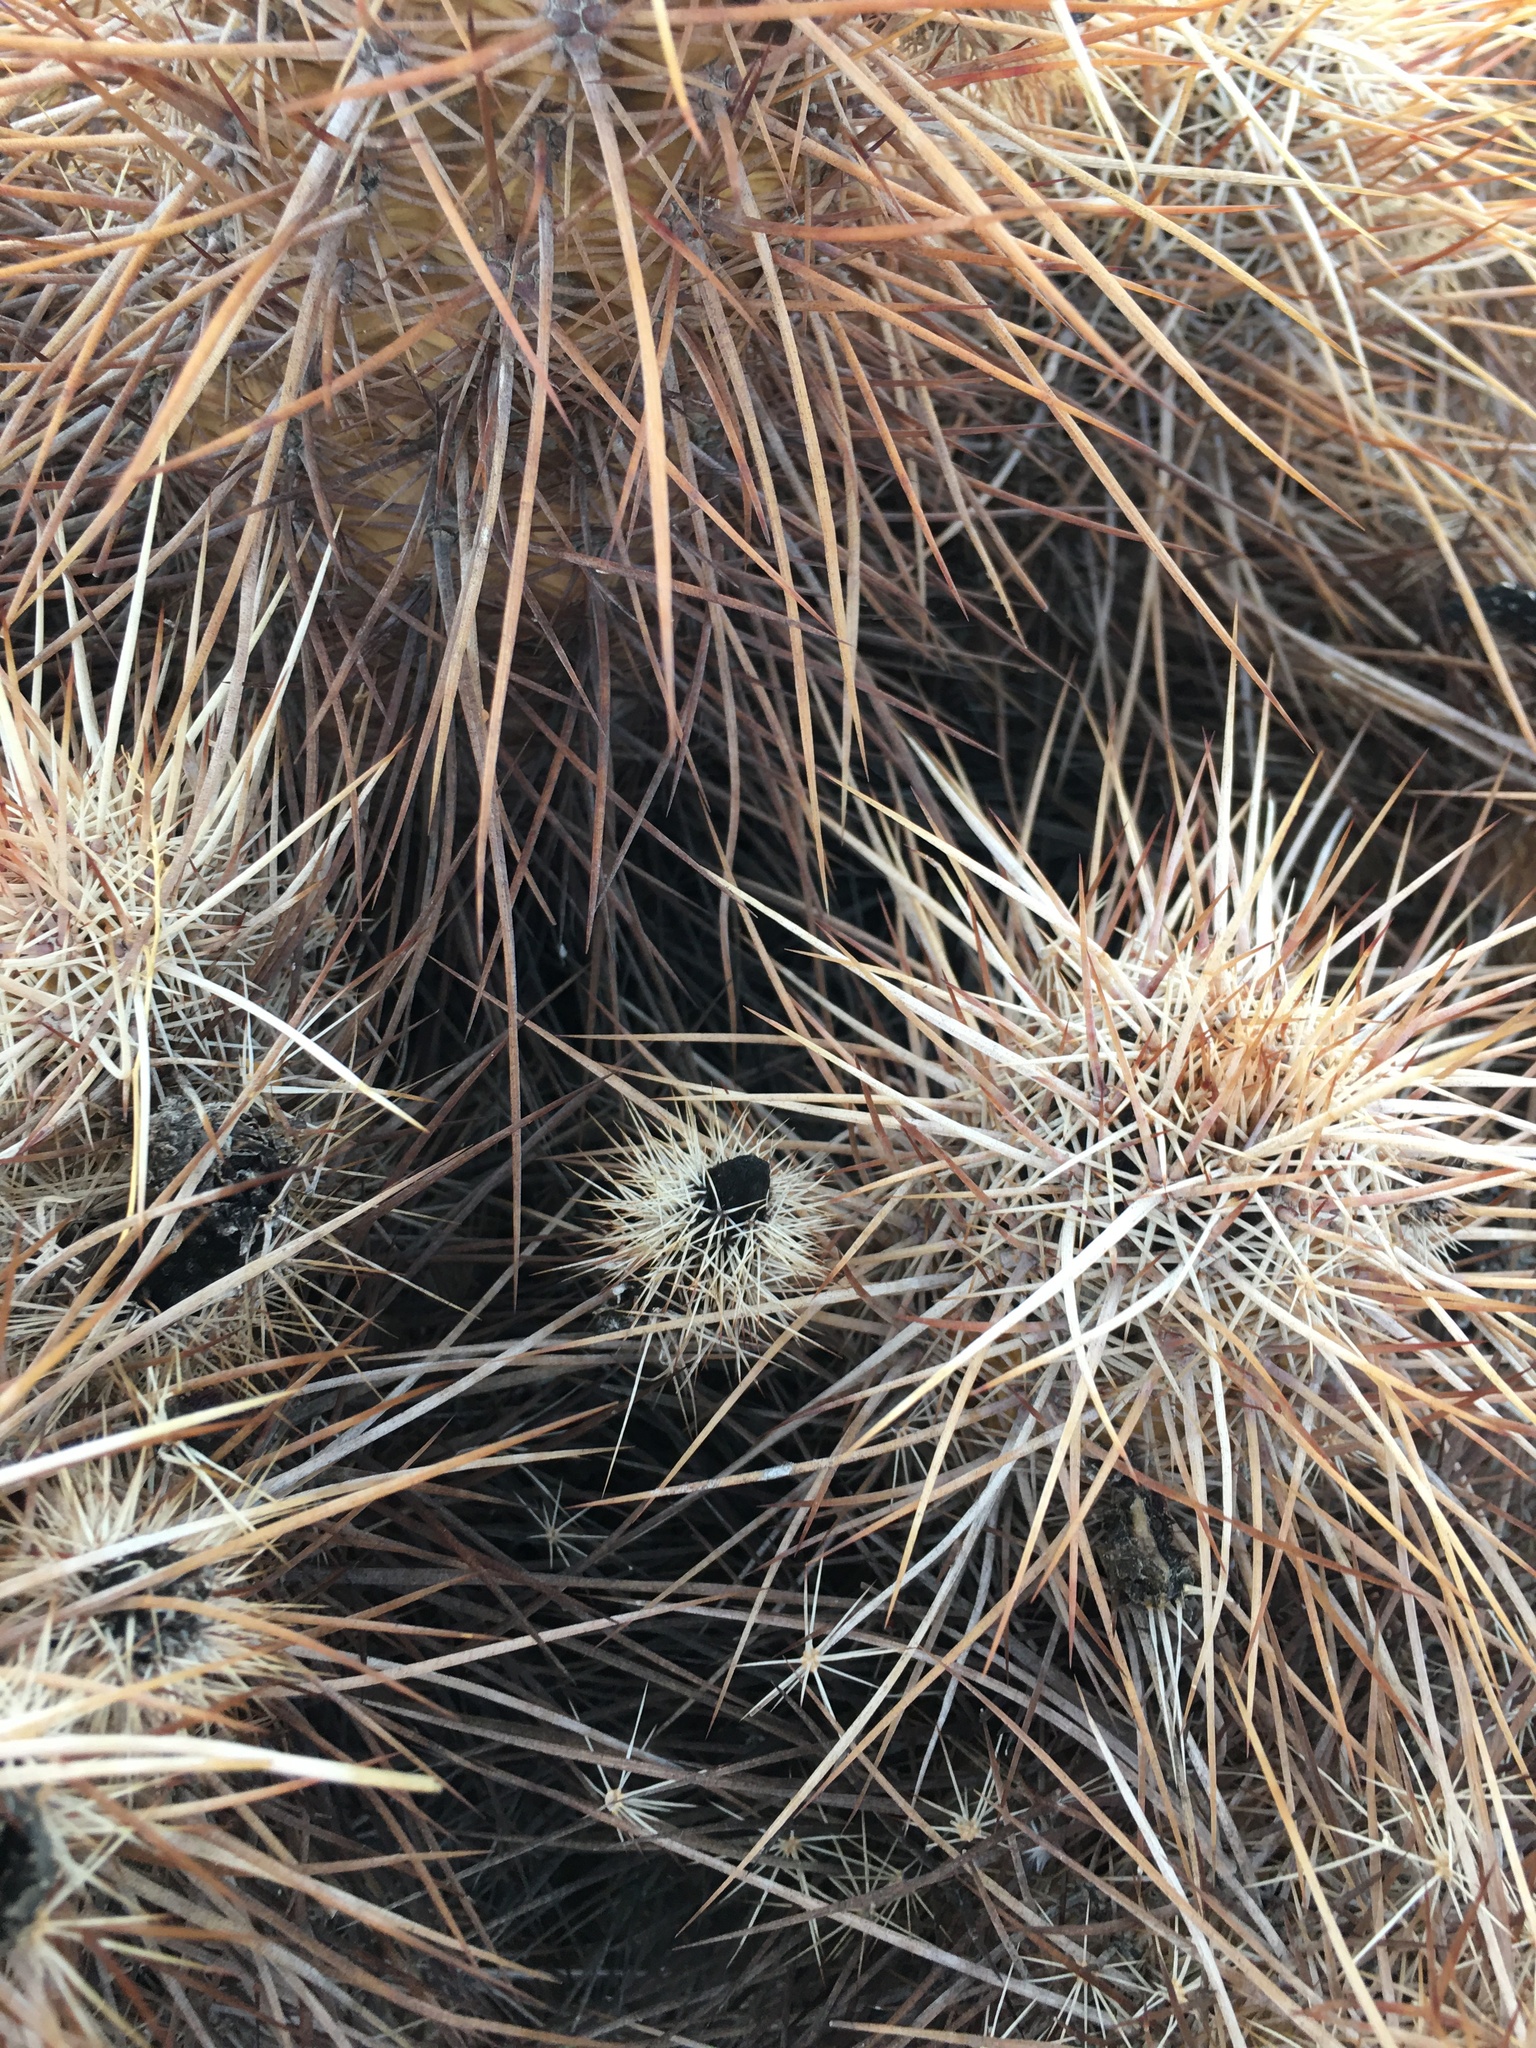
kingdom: Plantae
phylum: Tracheophyta
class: Magnoliopsida
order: Caryophyllales
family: Cactaceae
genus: Echinocereus
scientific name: Echinocereus engelmannii
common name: Engelmann's hedgehog cactus
